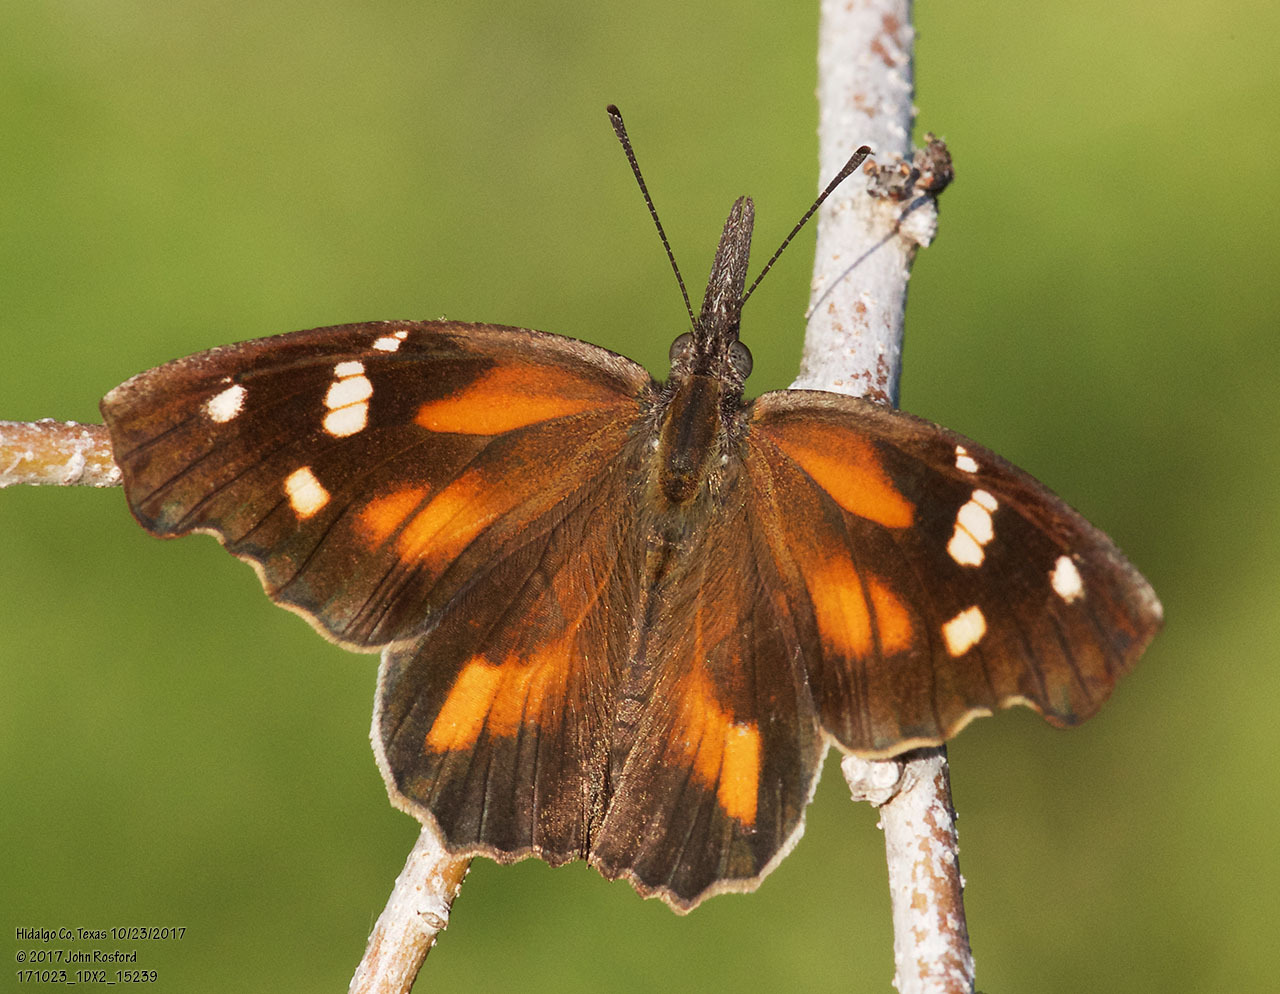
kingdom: Animalia
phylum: Arthropoda
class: Insecta
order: Lepidoptera
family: Nymphalidae
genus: Libytheana
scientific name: Libytheana carinenta
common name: American snout
